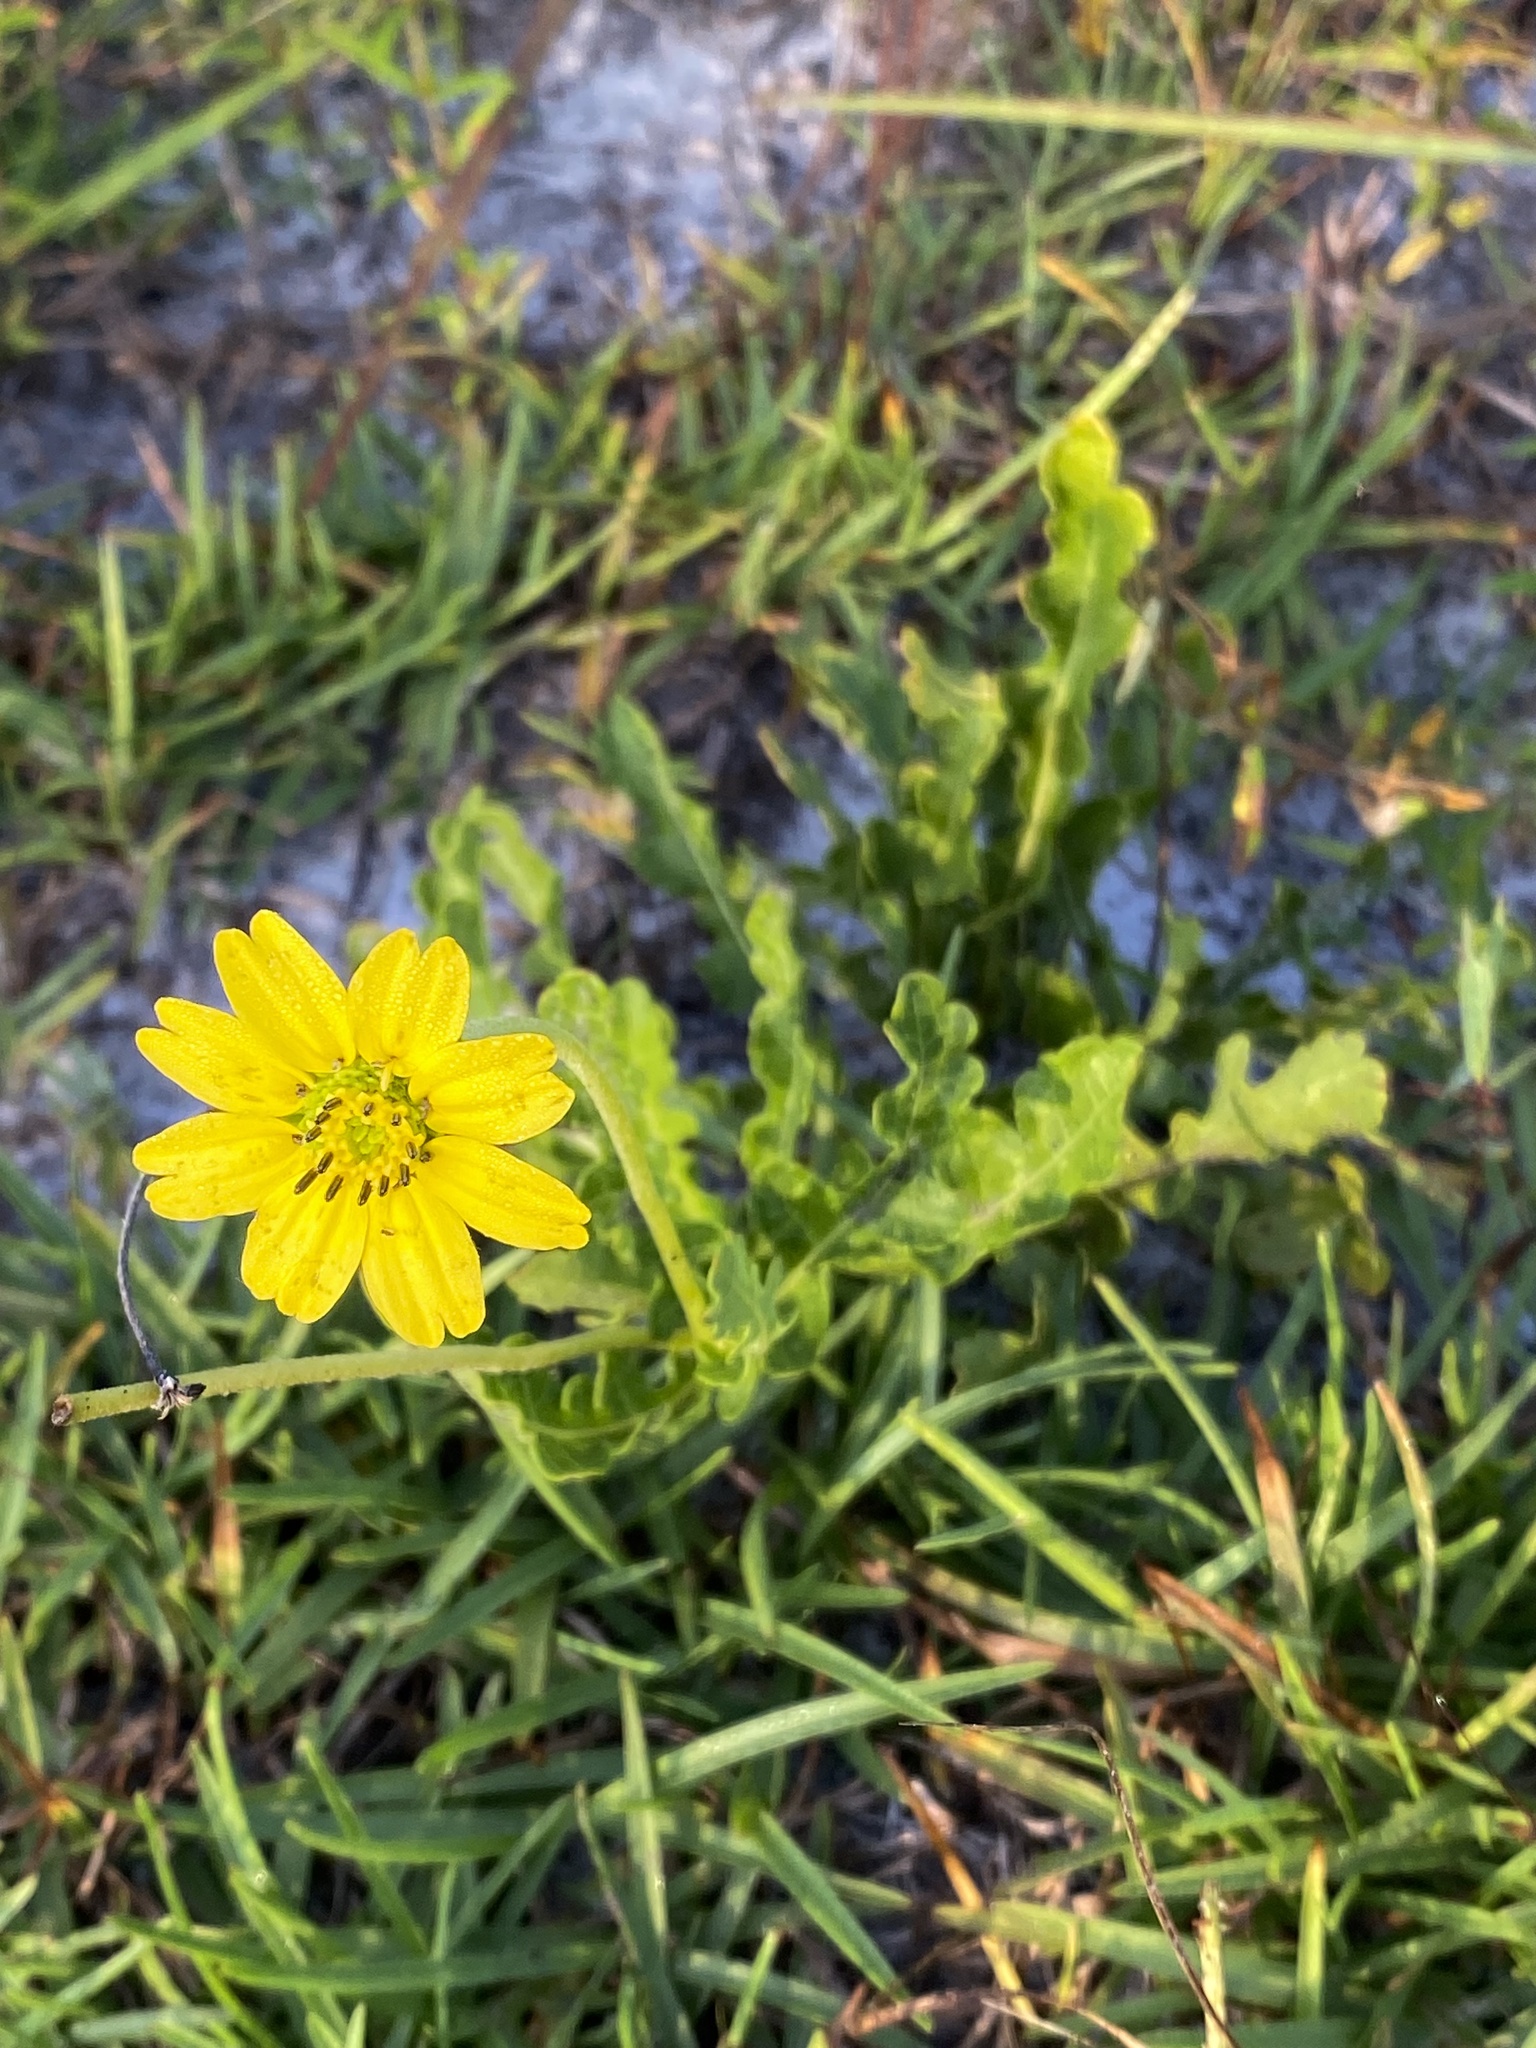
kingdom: Plantae
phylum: Tracheophyta
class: Magnoliopsida
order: Asterales
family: Asteraceae
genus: Berlandiera
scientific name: Berlandiera subacaulis
